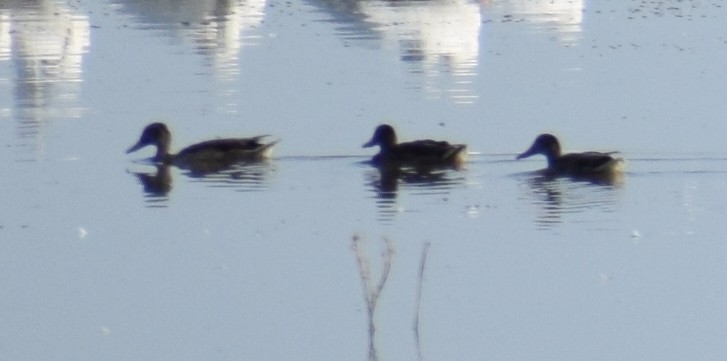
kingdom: Animalia
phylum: Chordata
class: Aves
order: Anseriformes
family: Anatidae
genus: Anas
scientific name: Anas platyrhynchos
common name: Mallard
